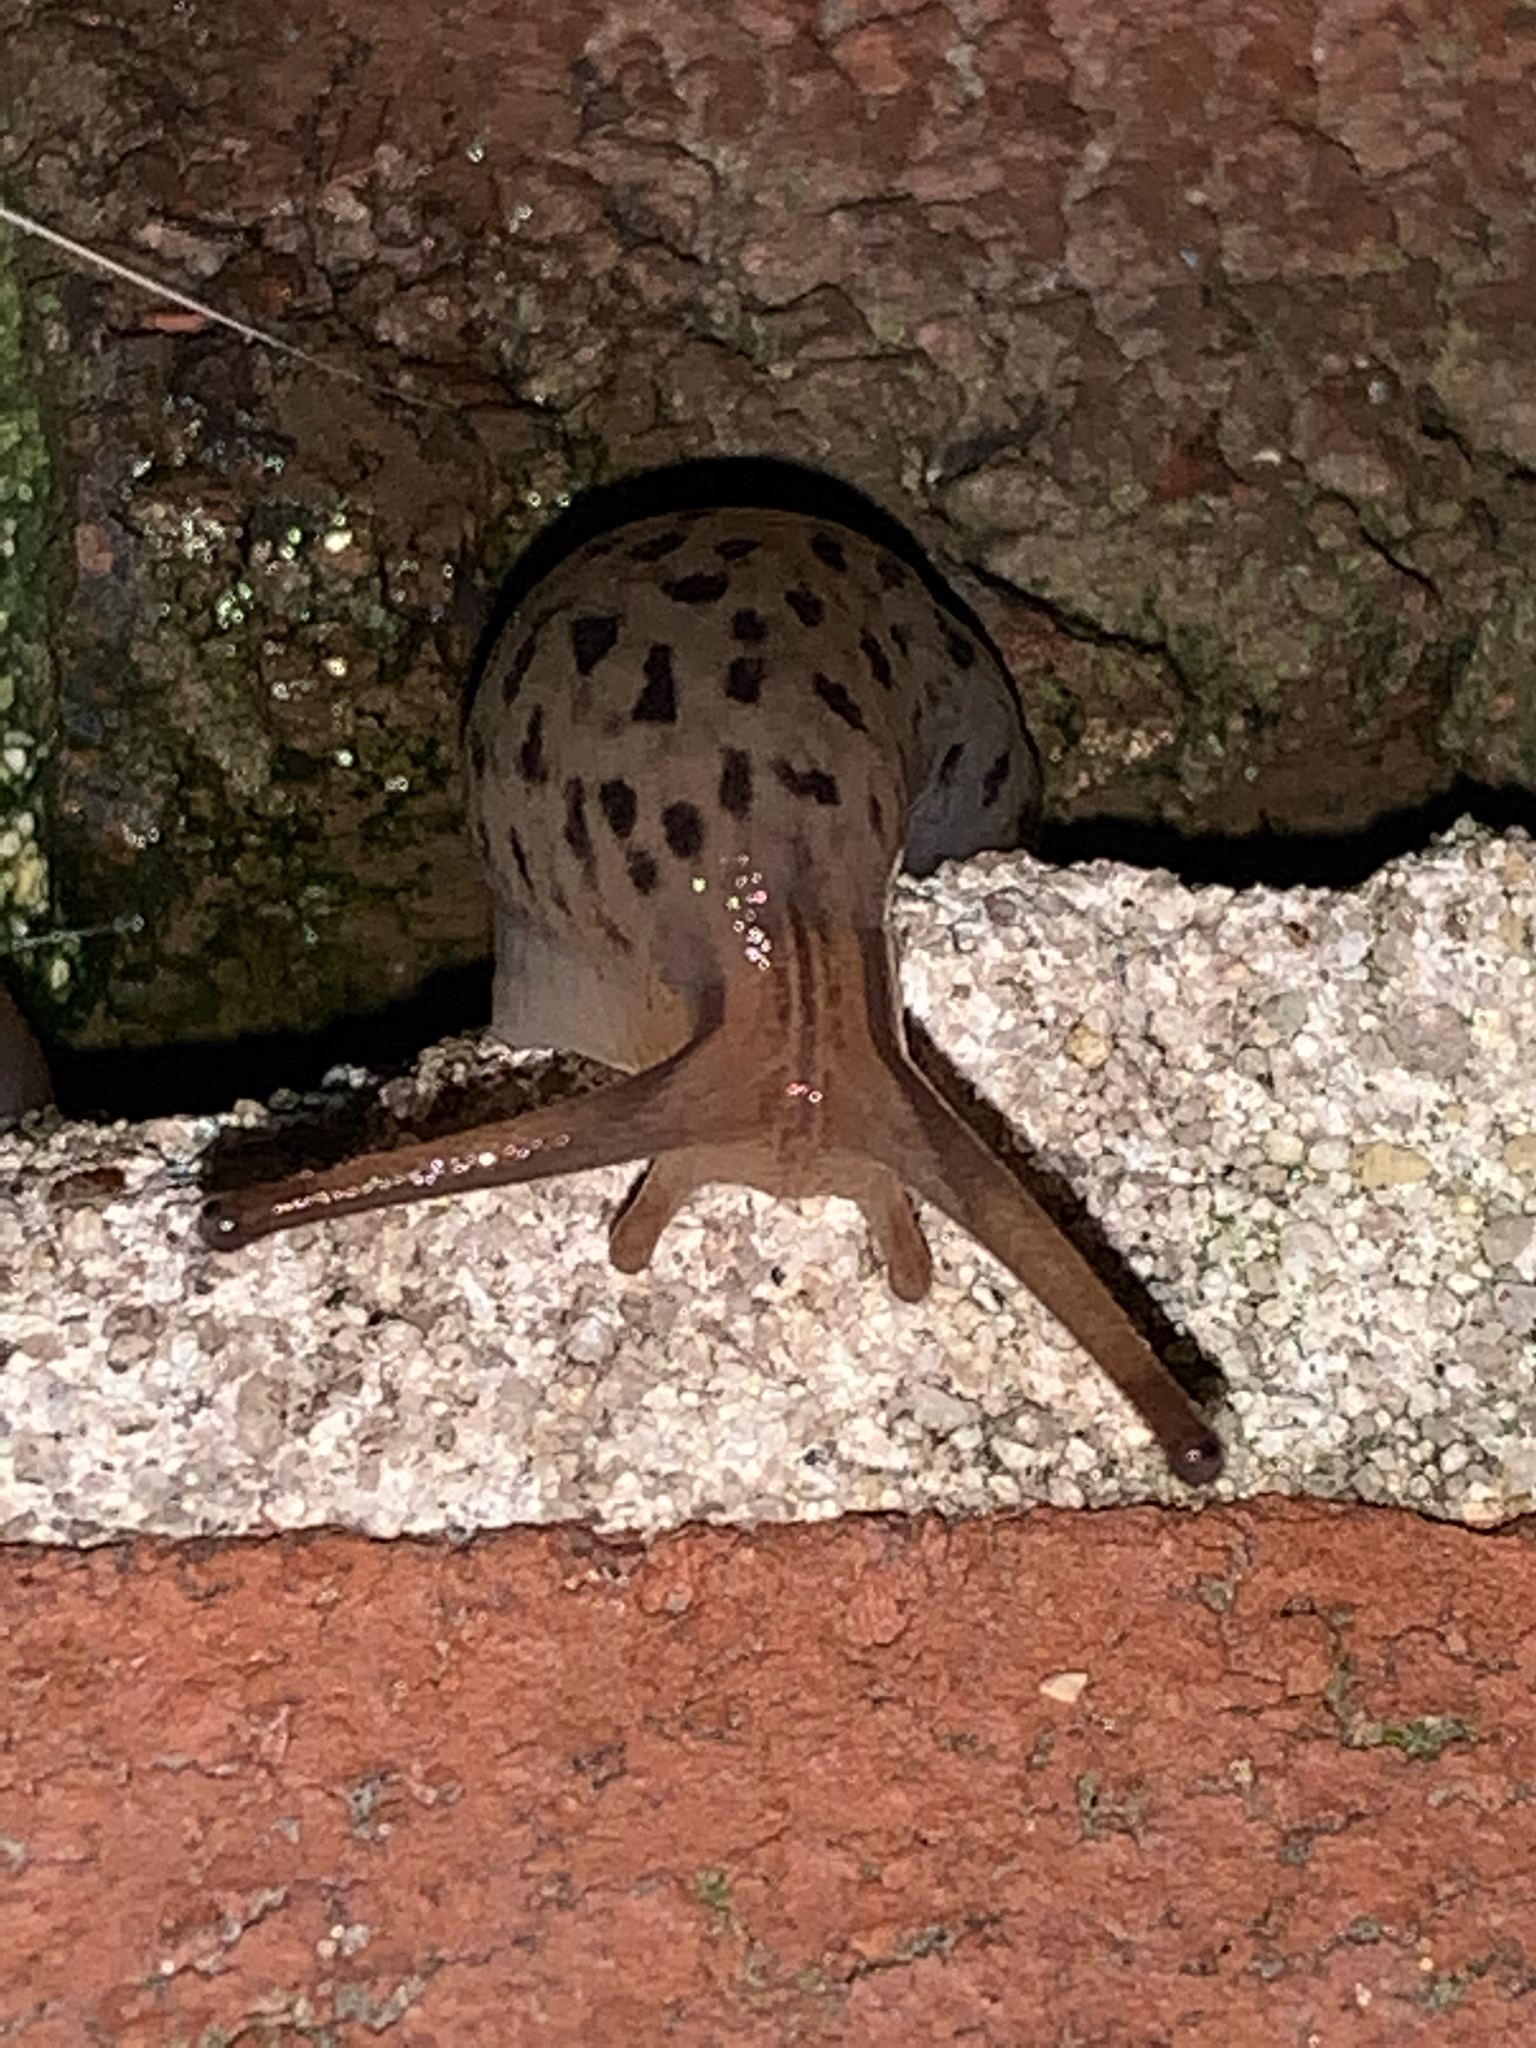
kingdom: Animalia
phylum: Mollusca
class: Gastropoda
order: Stylommatophora
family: Limacidae
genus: Limax
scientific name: Limax maximus
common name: Great grey slug
